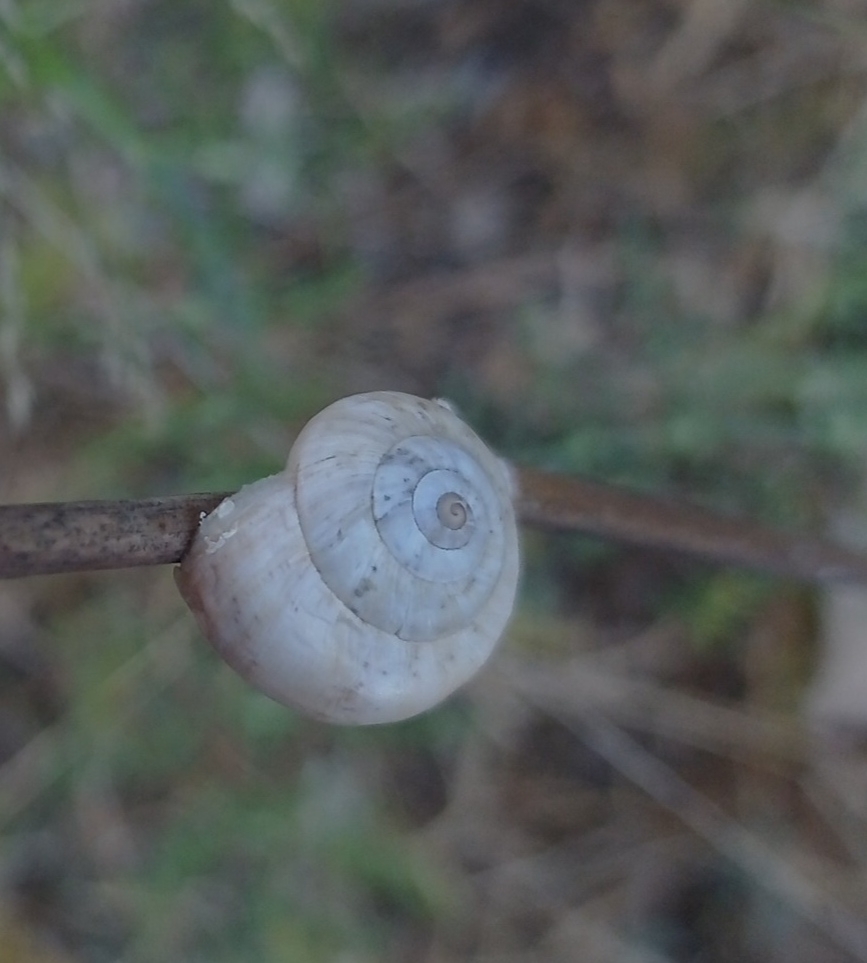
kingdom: Animalia
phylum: Mollusca
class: Gastropoda
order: Stylommatophora
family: Helicidae
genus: Theba
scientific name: Theba pisana
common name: White snail
